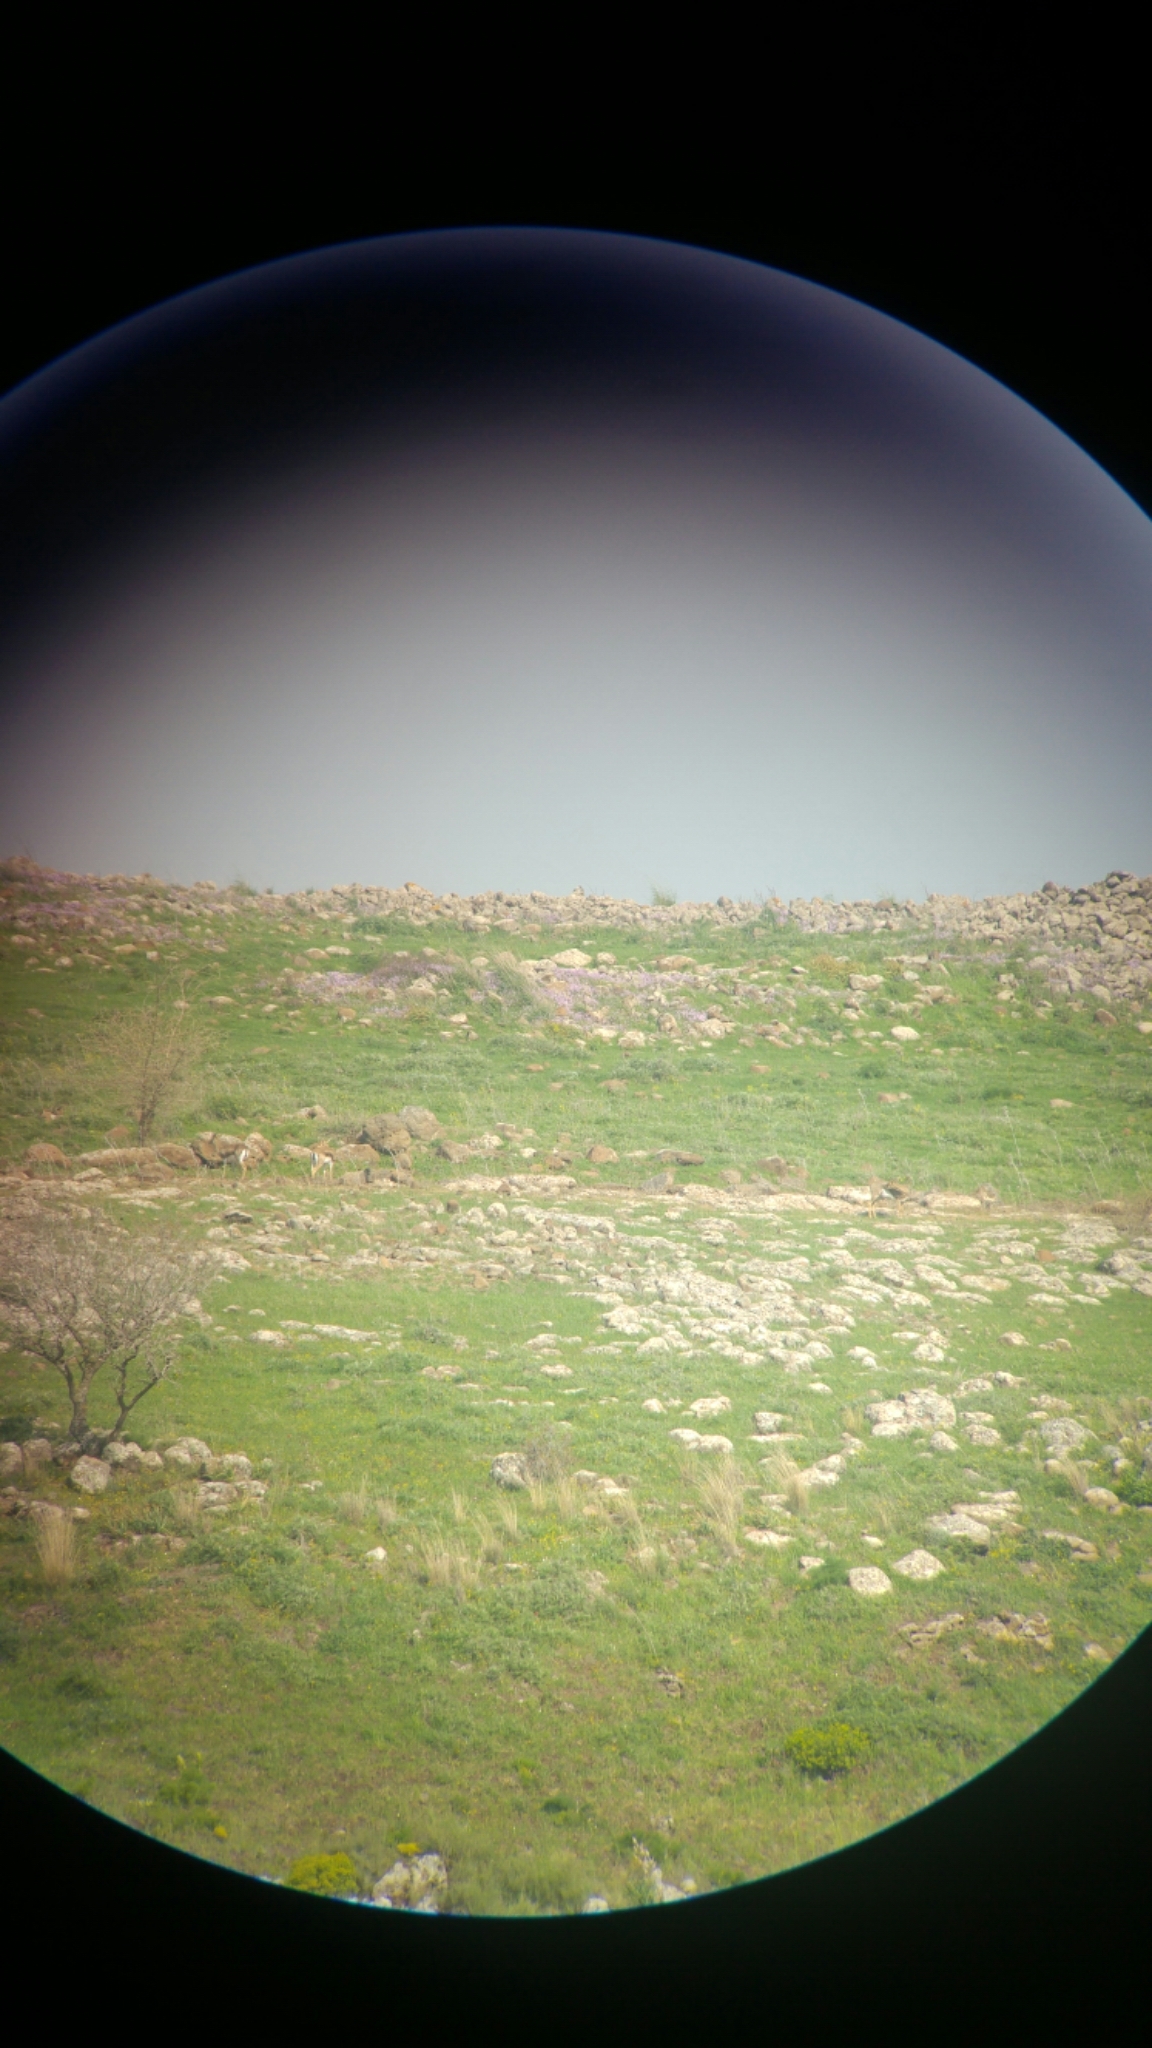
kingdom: Animalia
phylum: Chordata
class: Mammalia
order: Artiodactyla
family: Bovidae
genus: Gazella
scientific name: Gazella gazella
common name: Mountain gazelle
